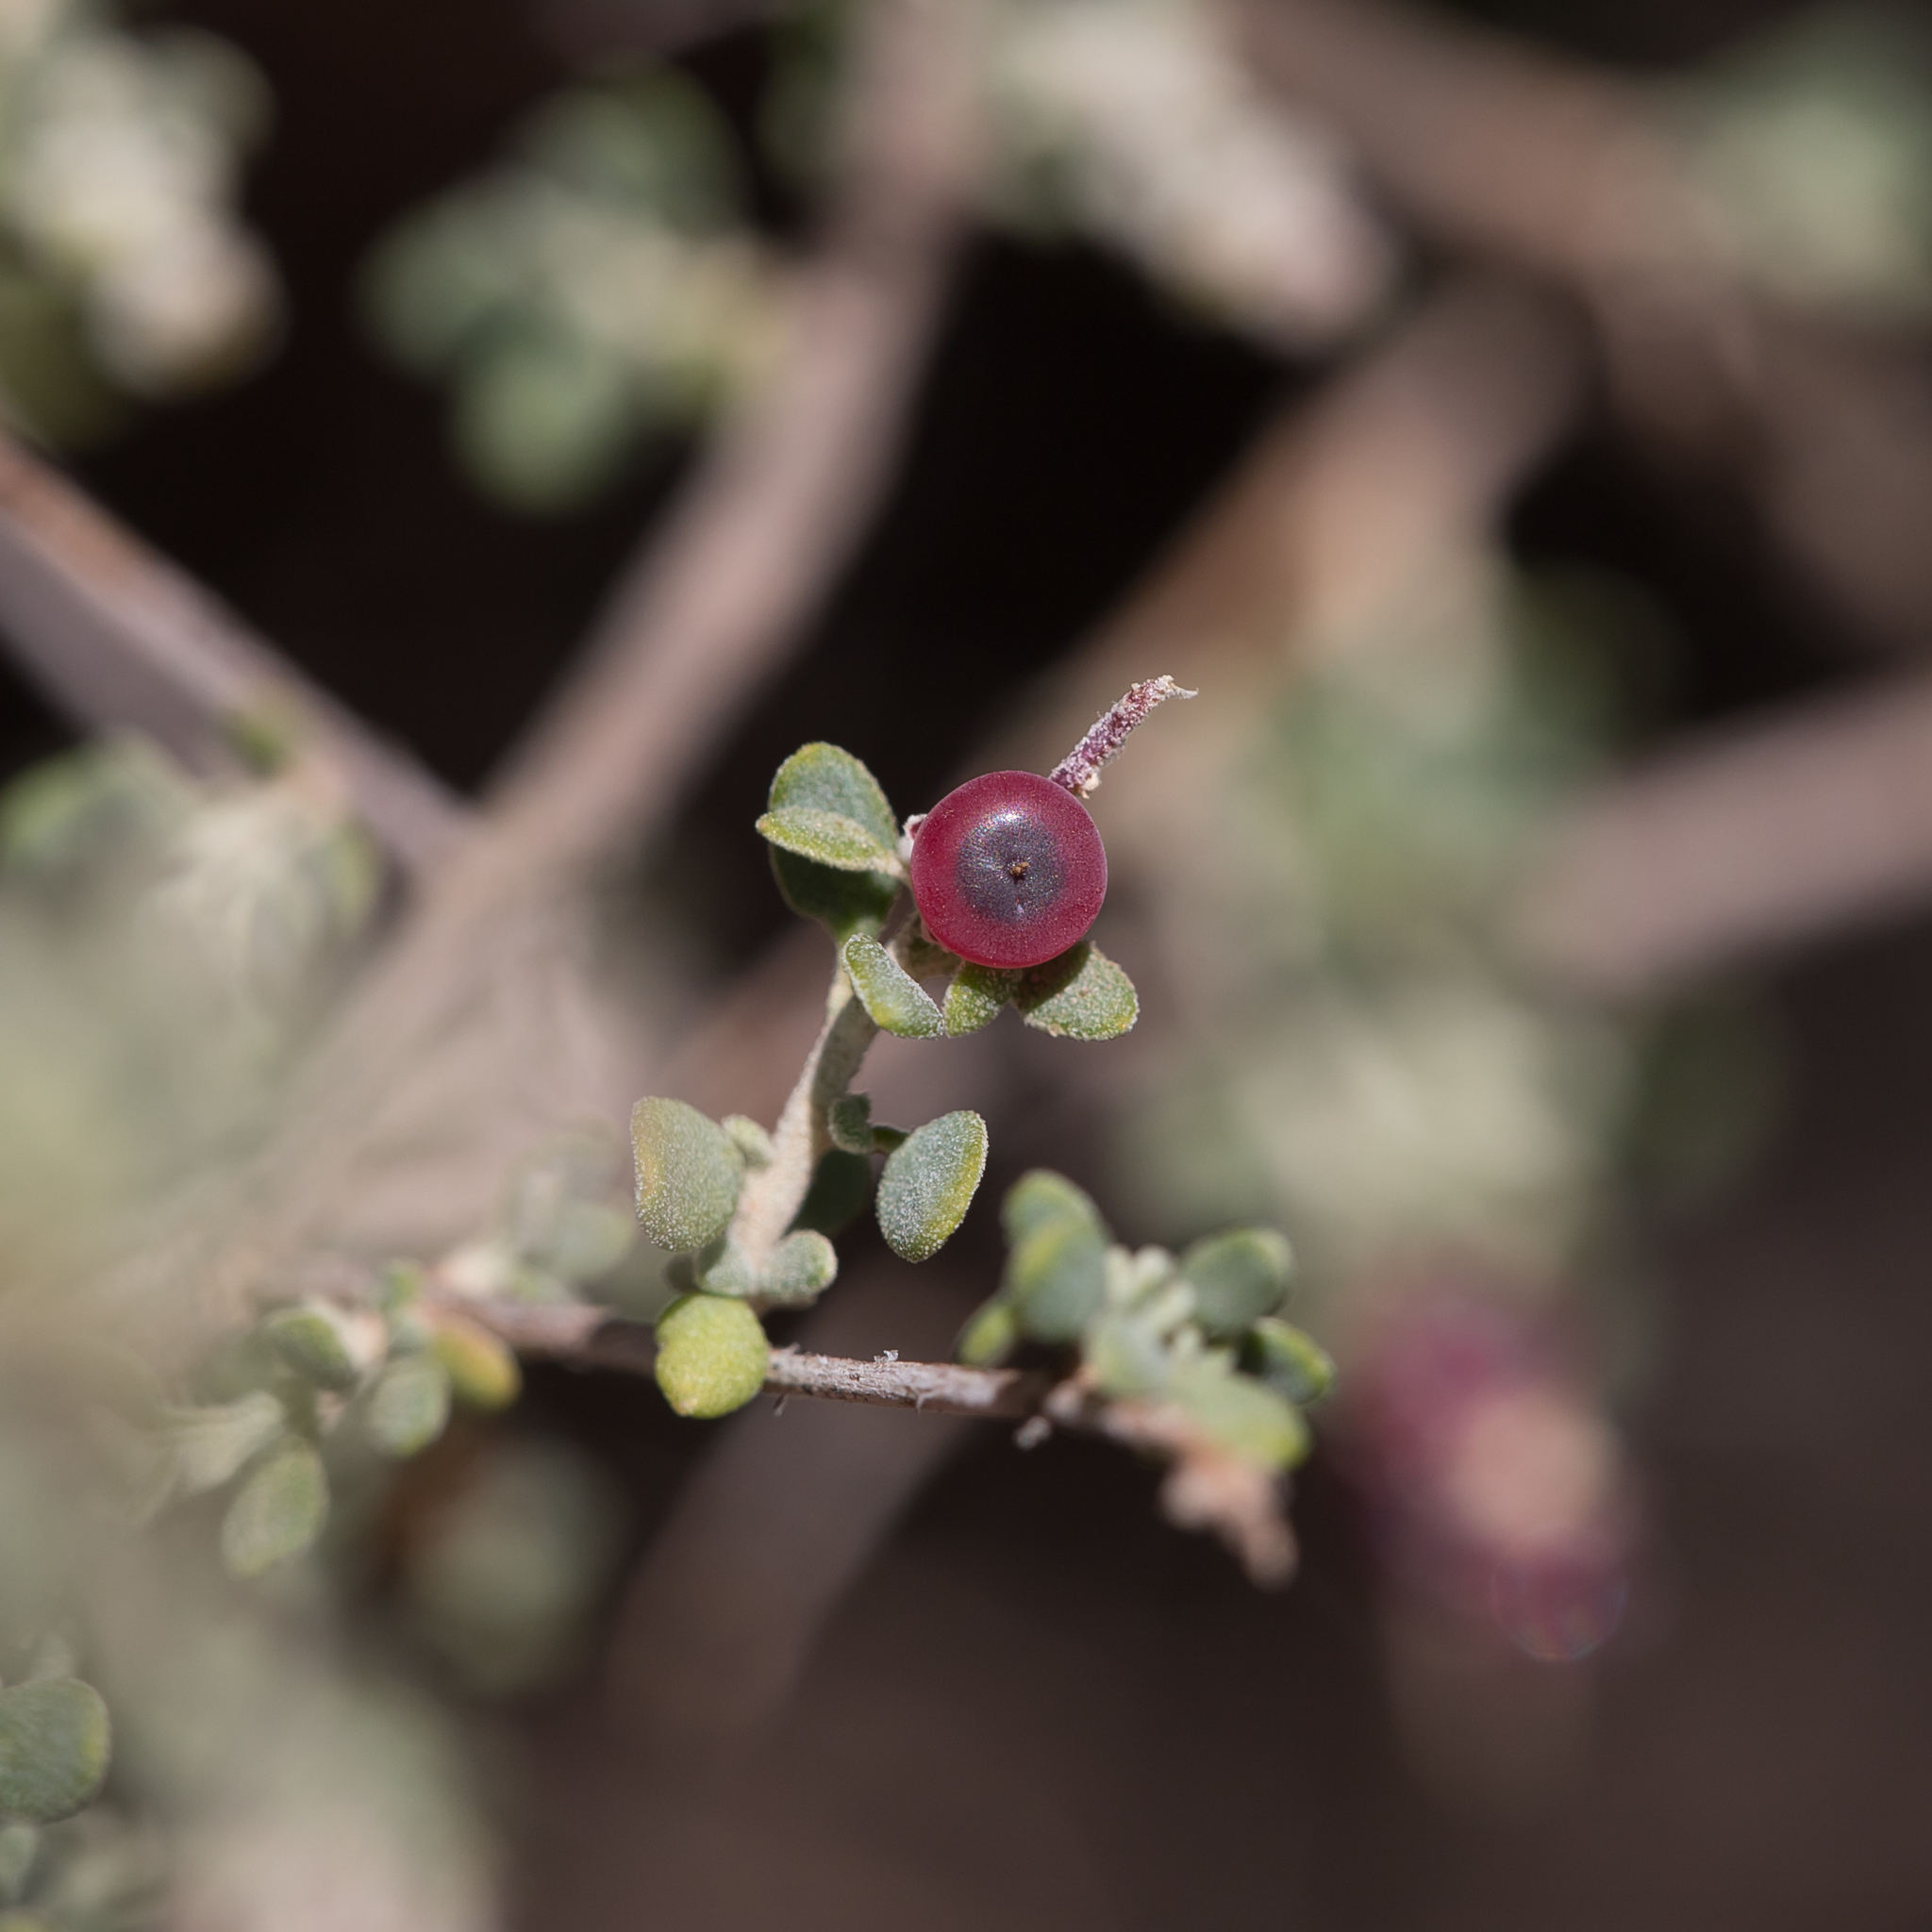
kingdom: Plantae
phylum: Tracheophyta
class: Magnoliopsida
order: Caryophyllales
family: Amaranthaceae
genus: Chenopodium
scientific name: Chenopodium spinescens
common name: Berry-saltbush
